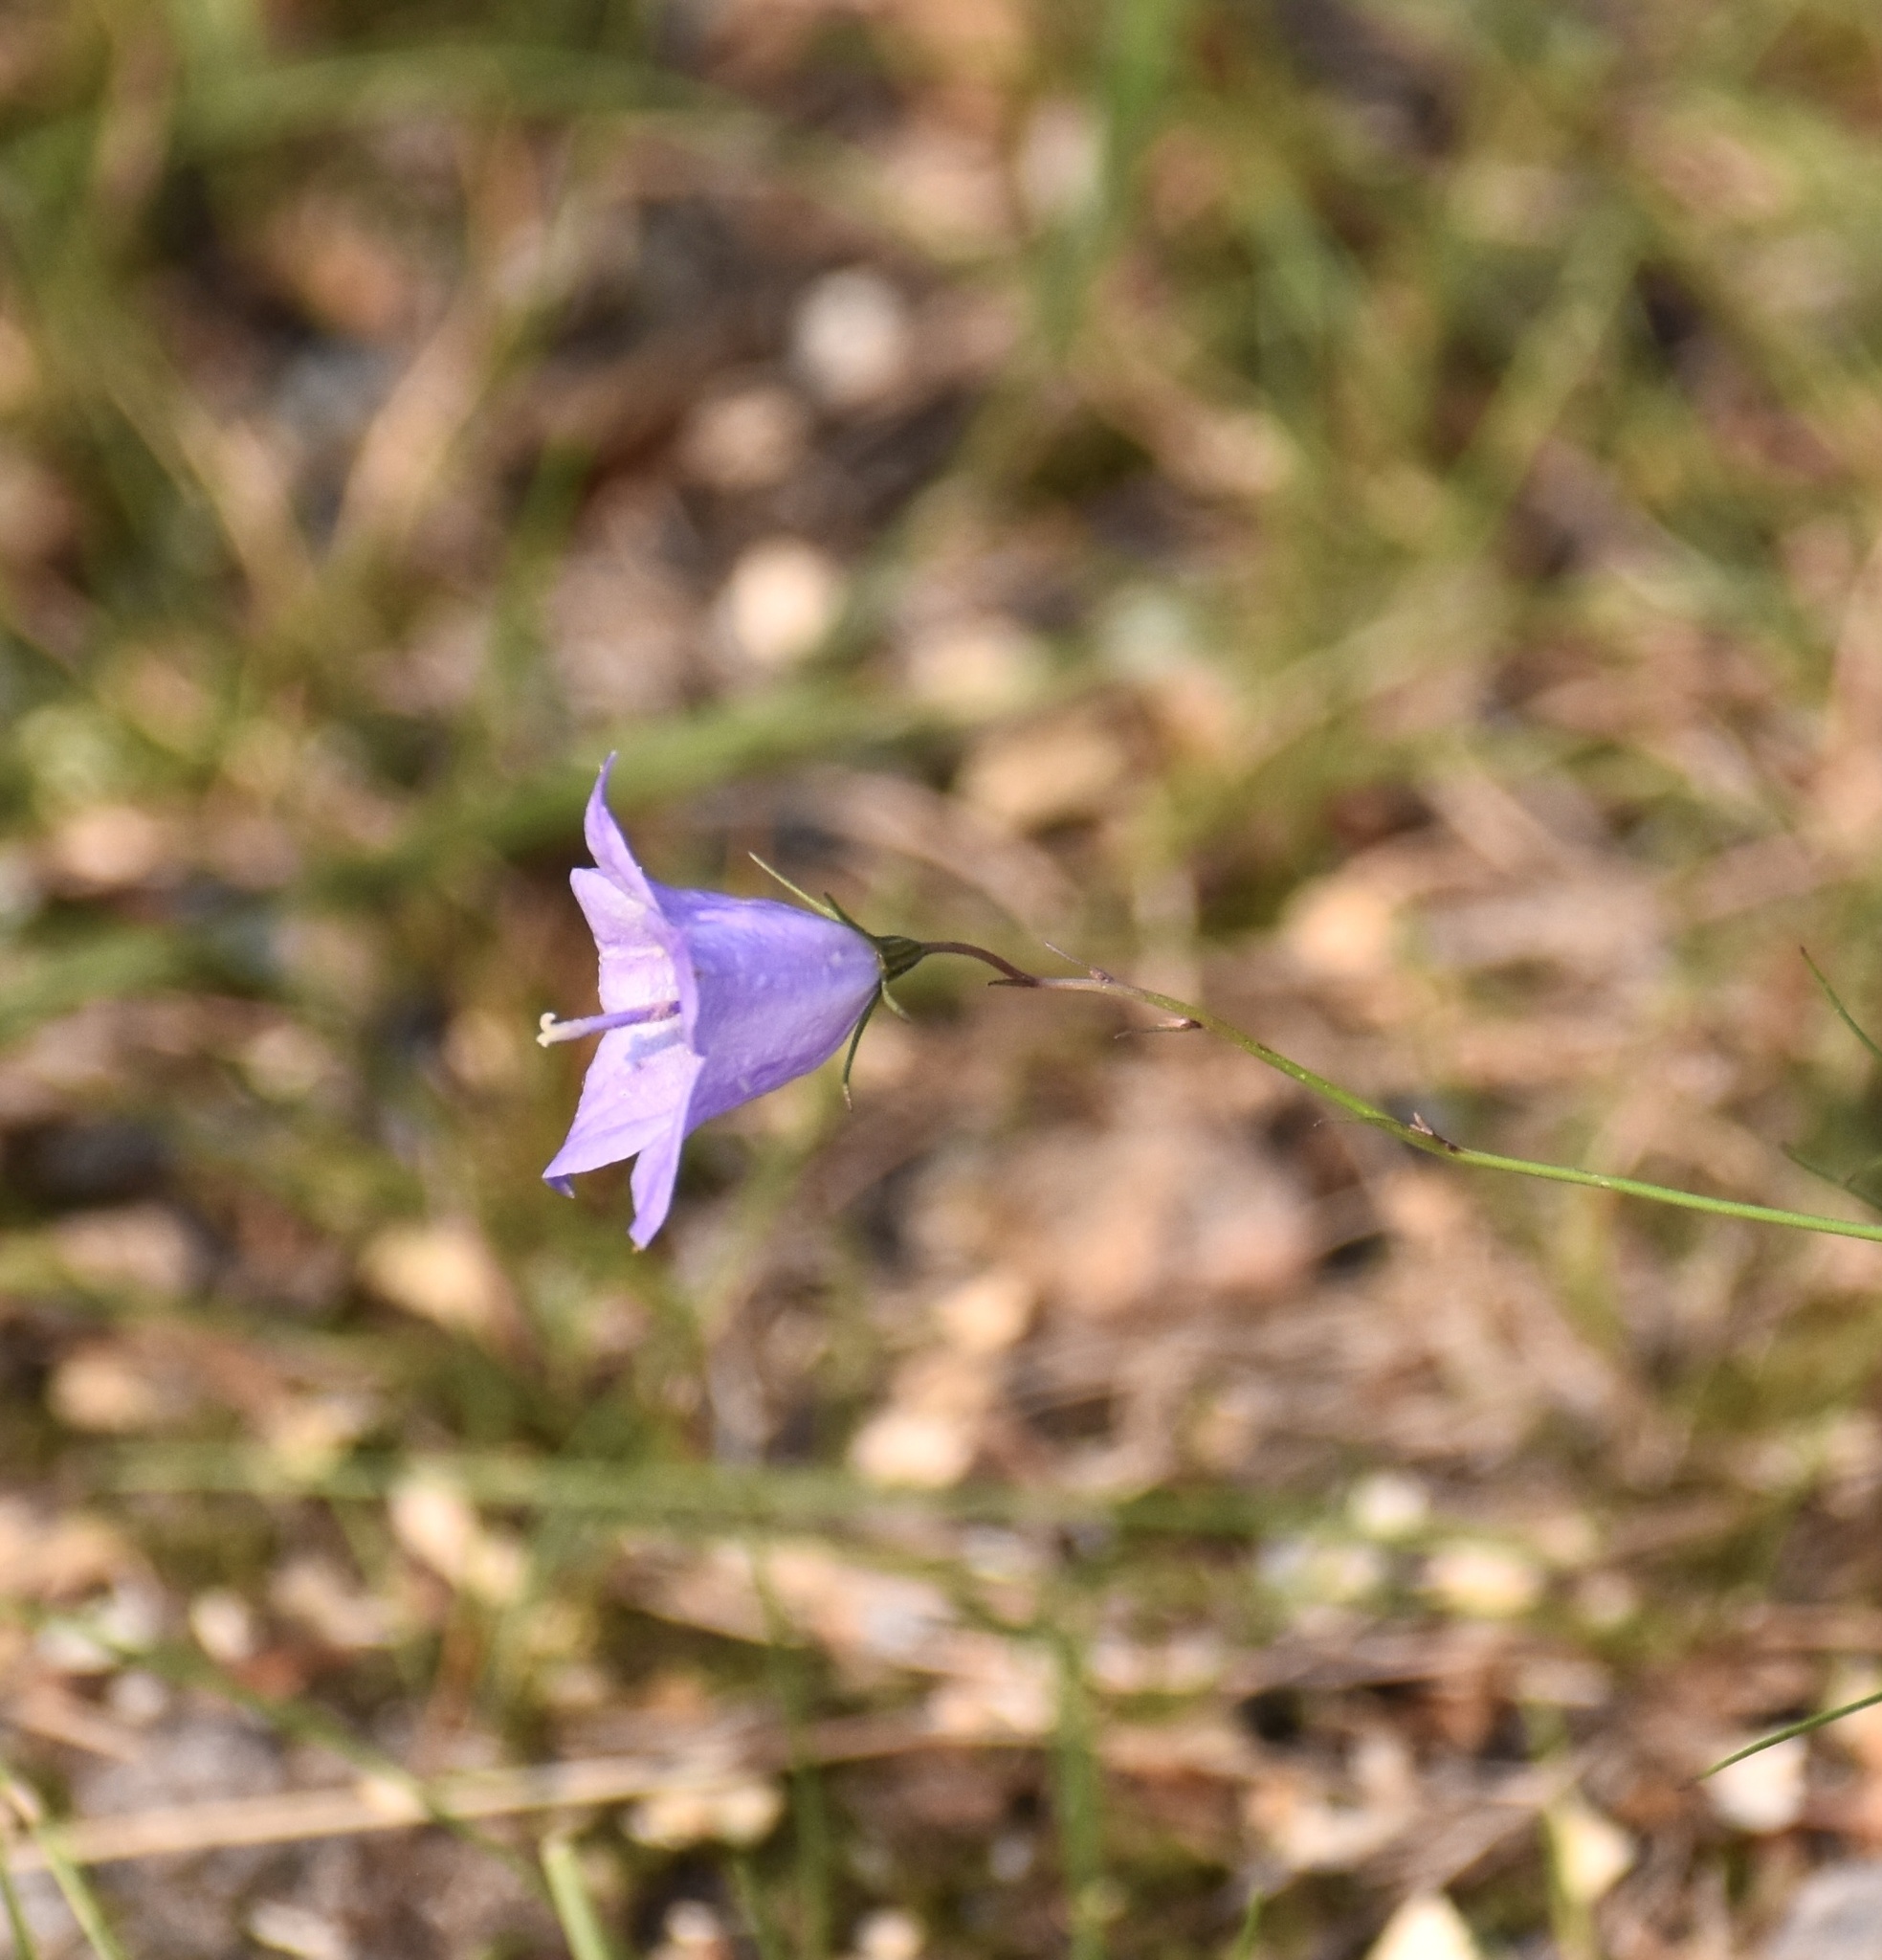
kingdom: Plantae
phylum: Tracheophyta
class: Magnoliopsida
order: Asterales
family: Campanulaceae
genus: Campanula
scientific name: Campanula alaskana
